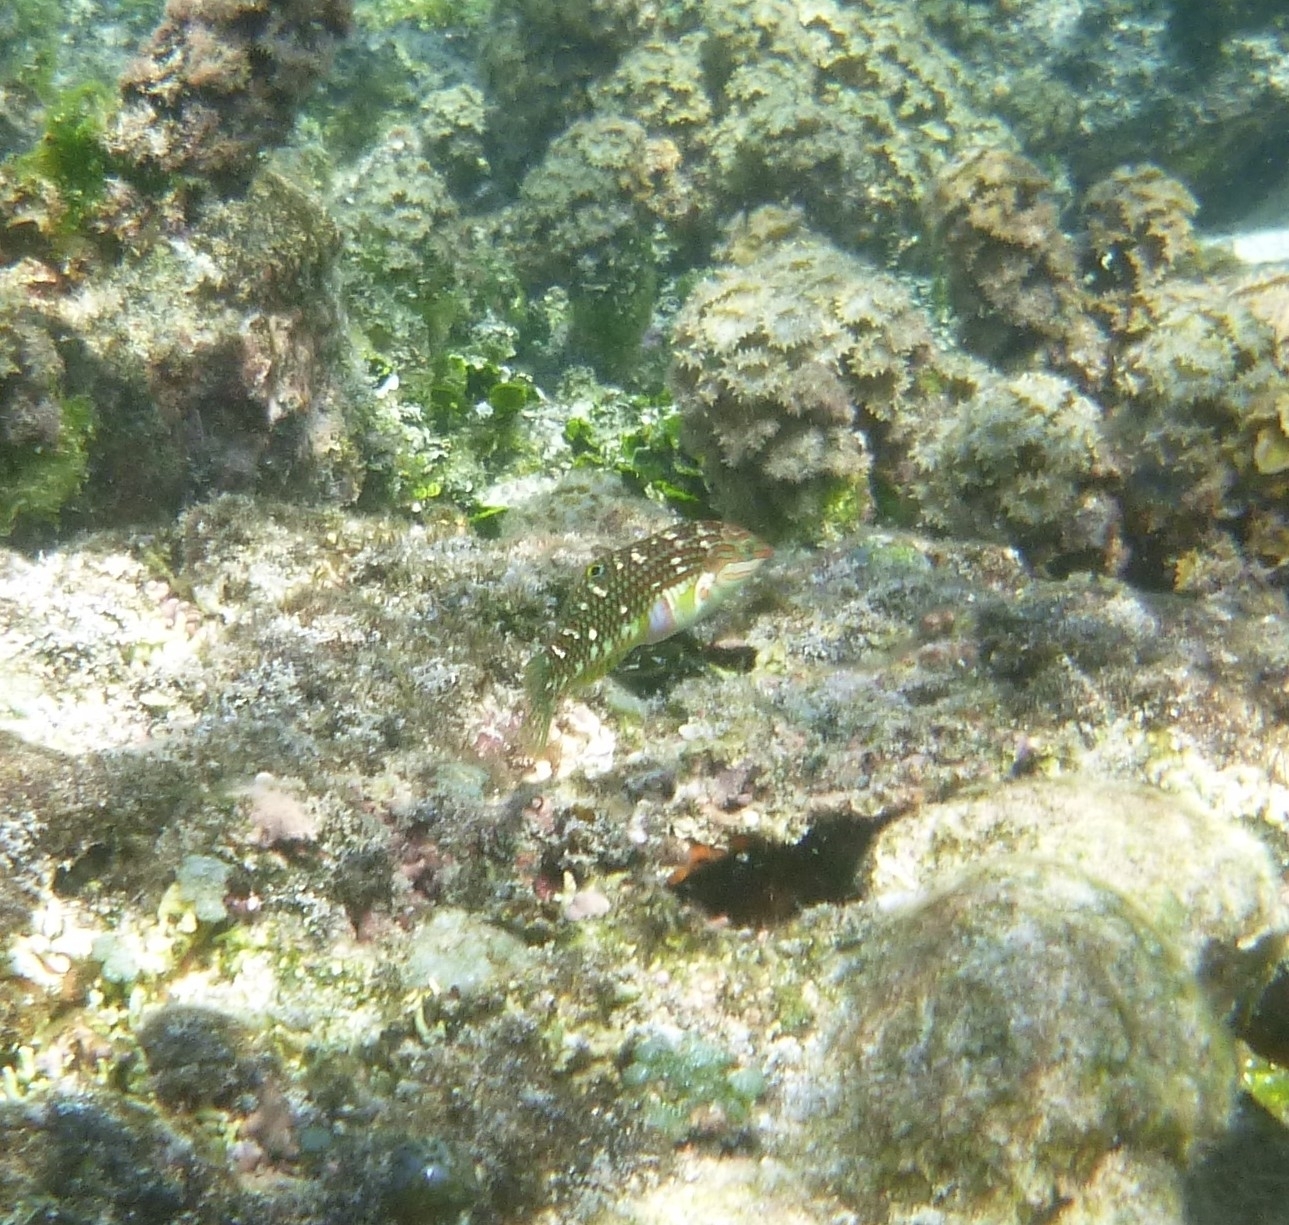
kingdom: Animalia
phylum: Chordata
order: Perciformes
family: Labridae
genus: Halichoeres
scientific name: Halichoeres margaritaceus
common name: Pink-belly wrasse
